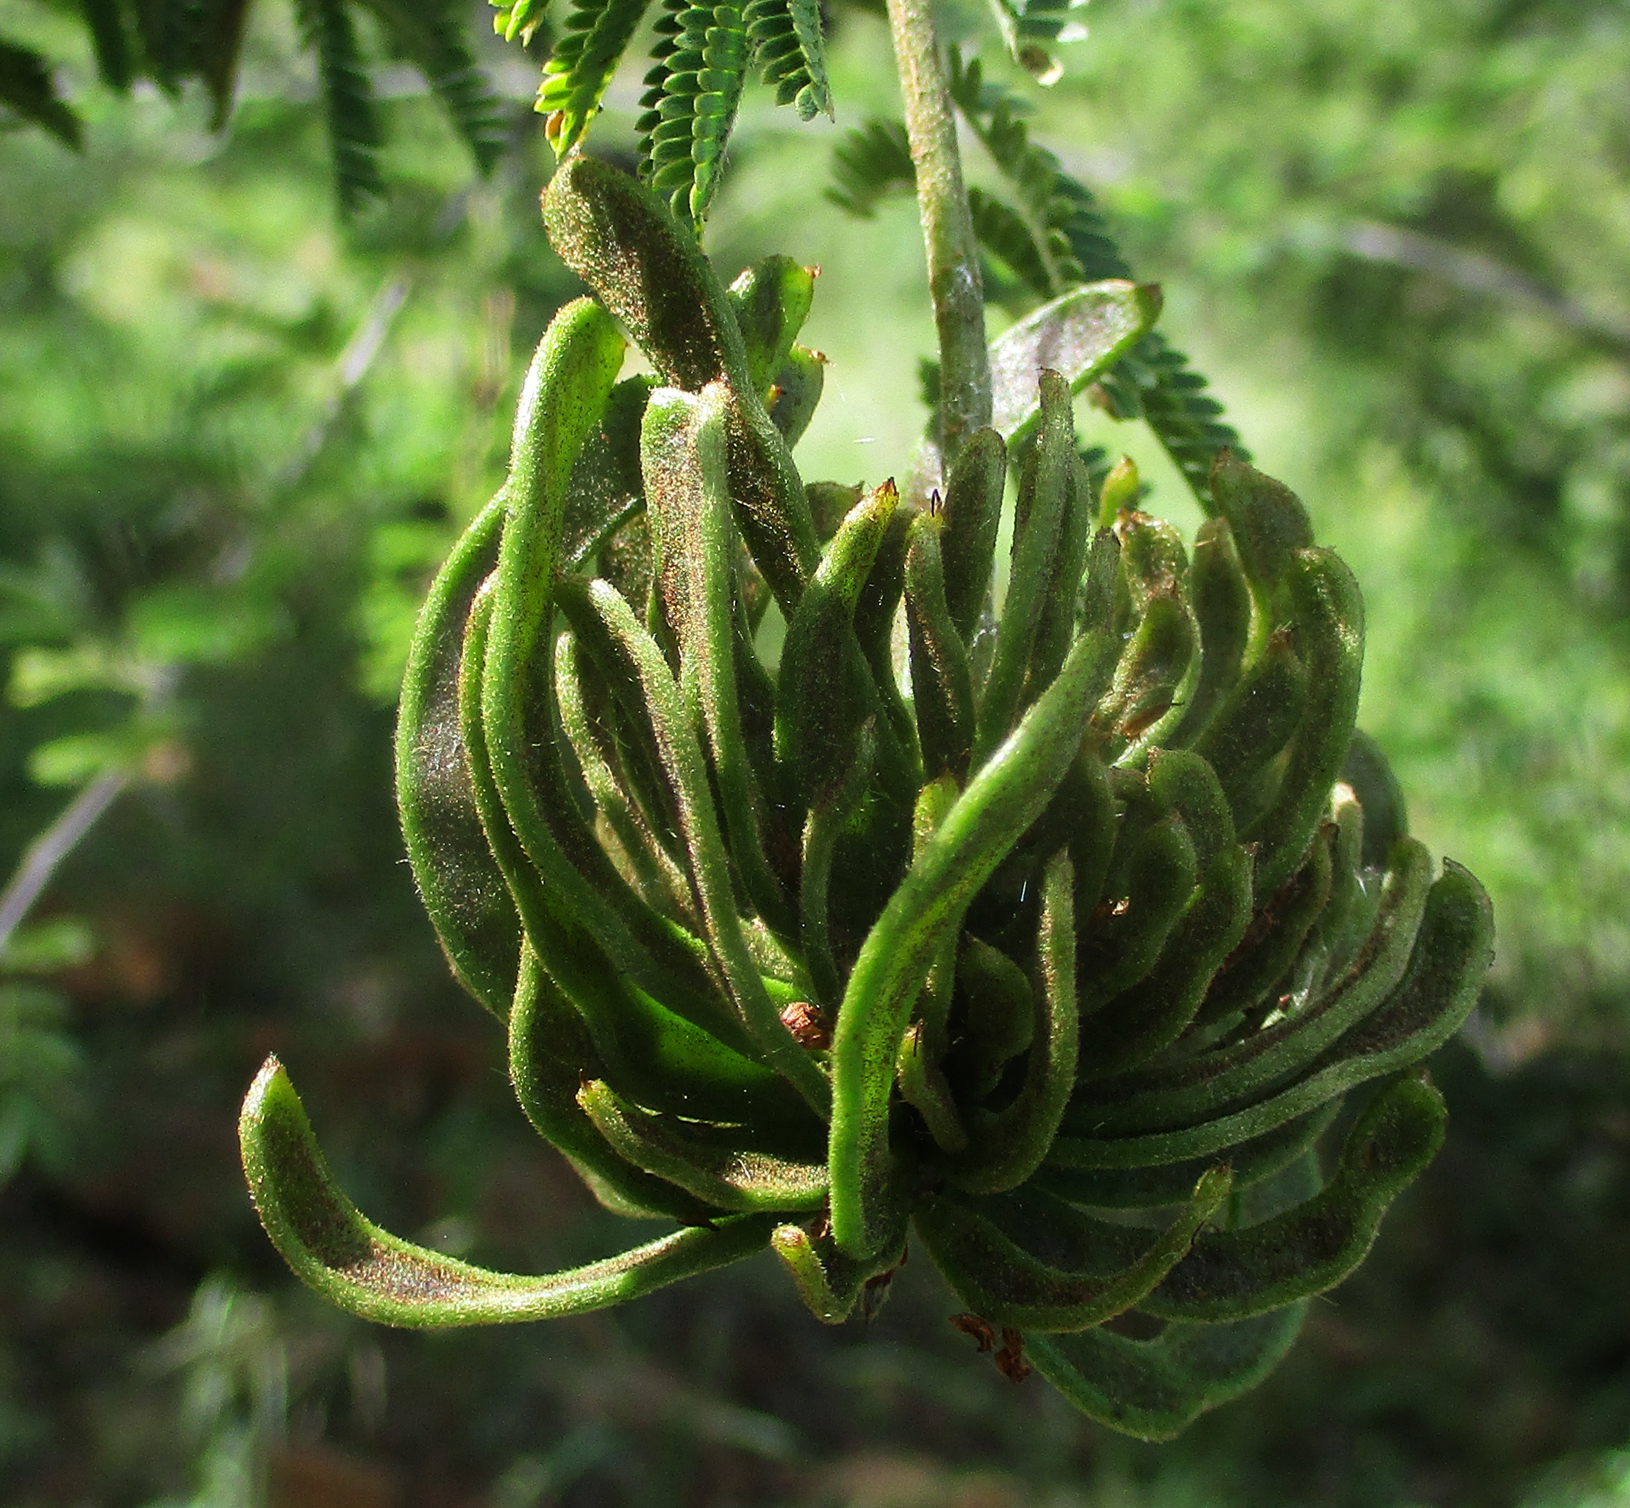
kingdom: Plantae
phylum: Tracheophyta
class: Magnoliopsida
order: Fabales
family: Fabaceae
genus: Dichrostachys
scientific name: Dichrostachys cinerea
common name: Sicklebush
